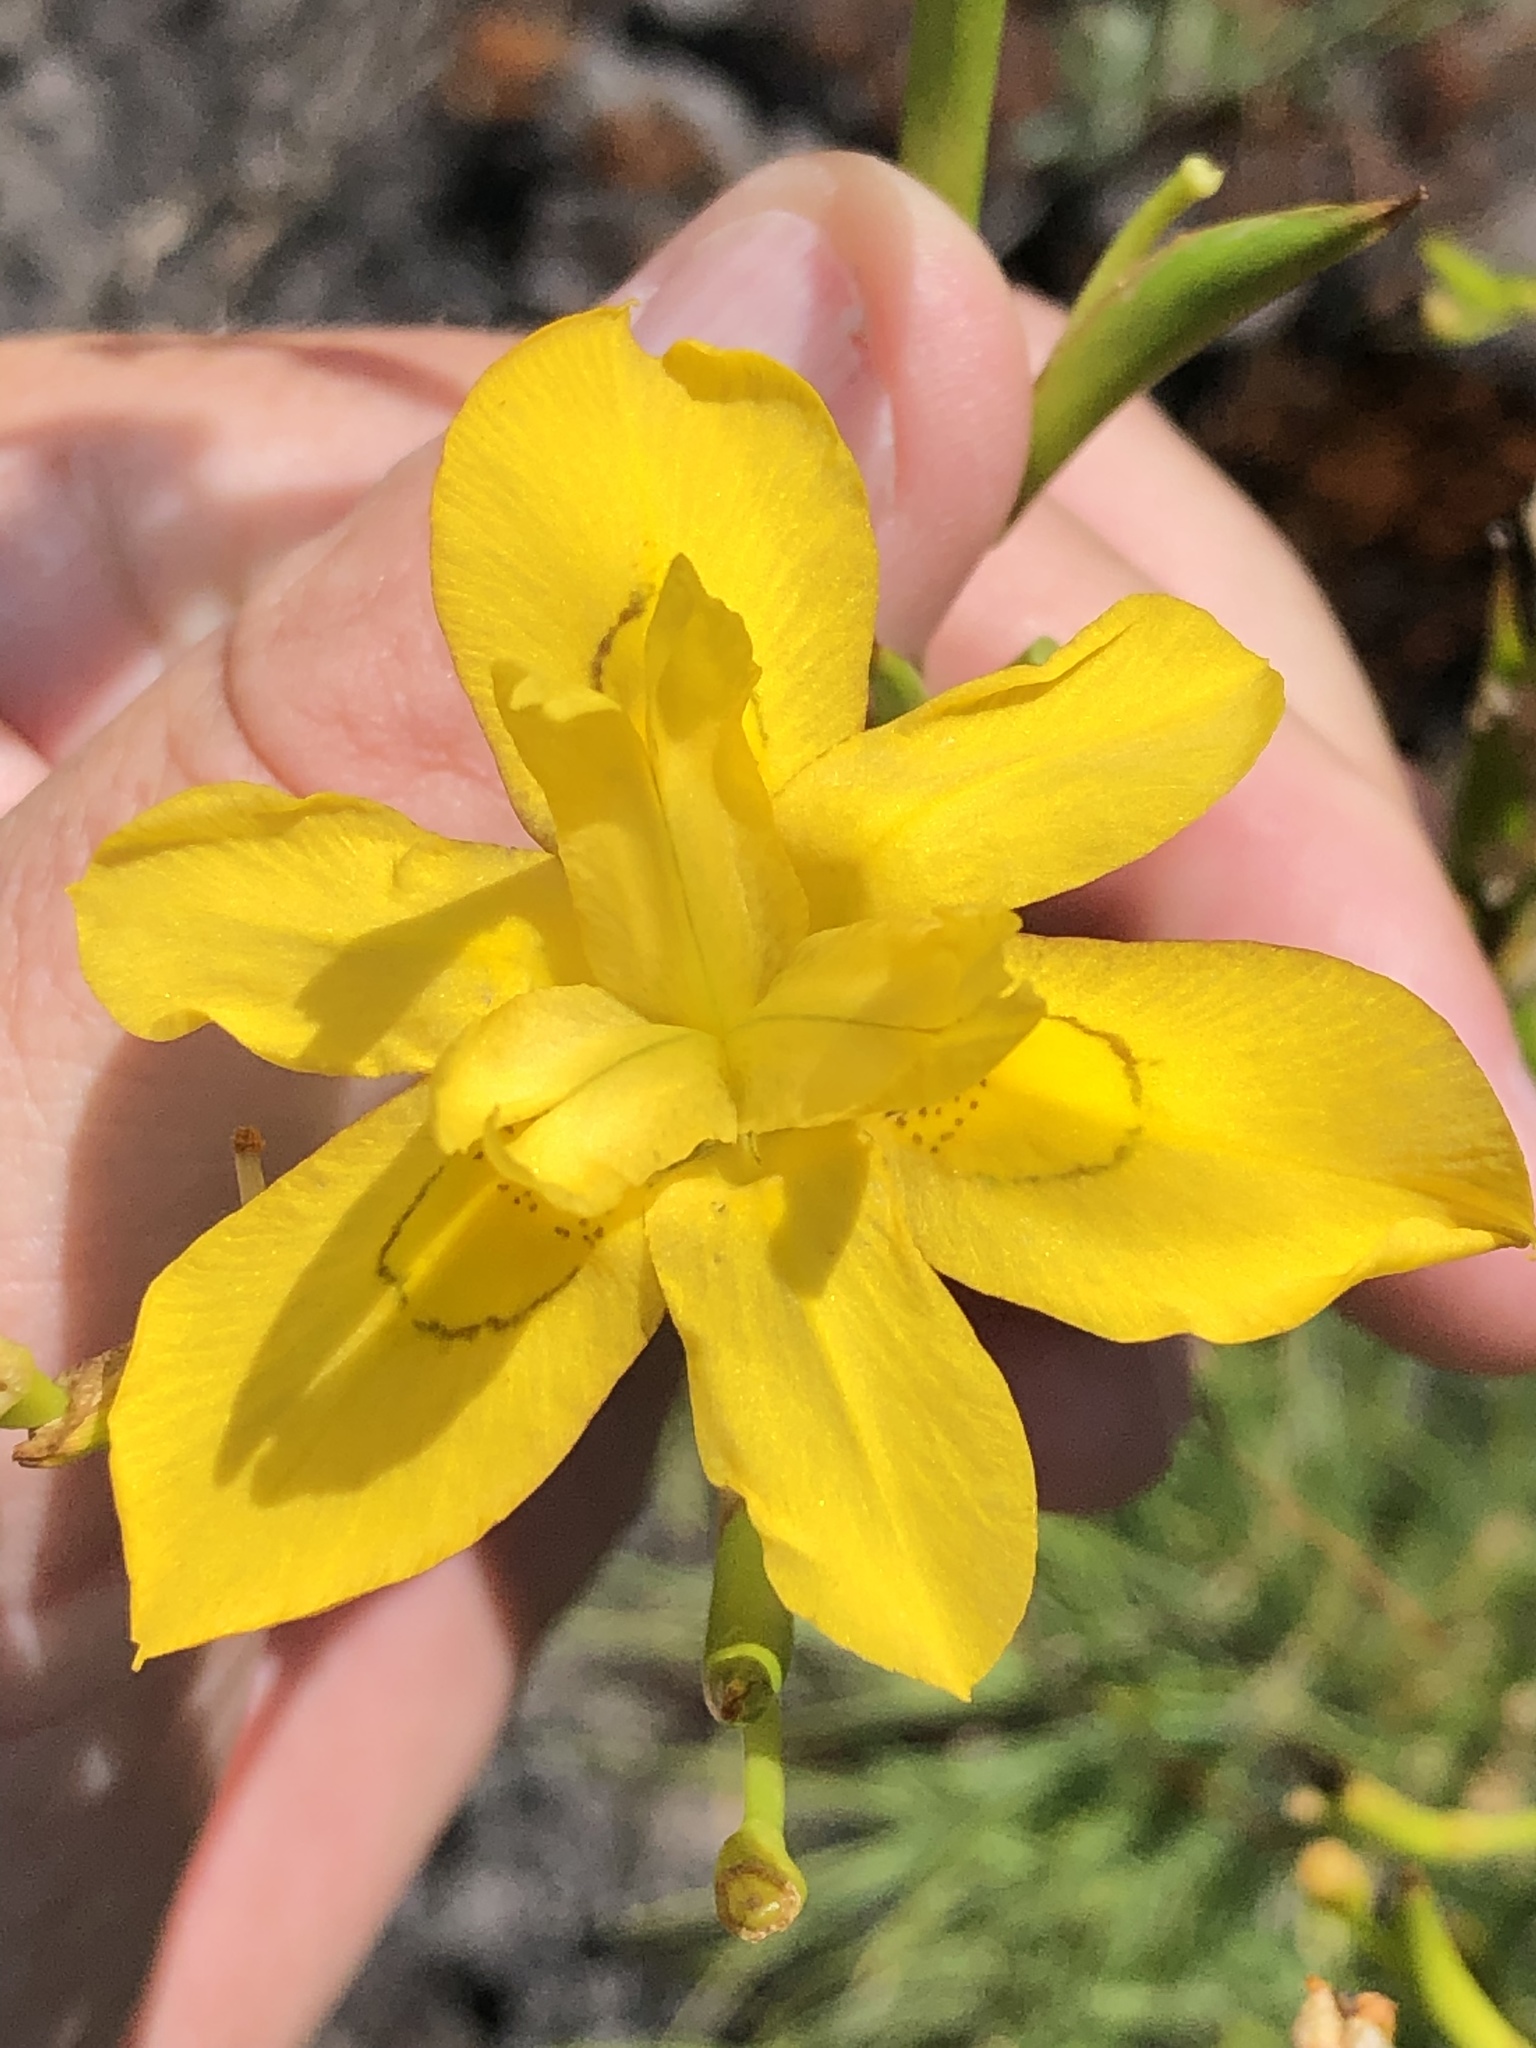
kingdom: Plantae
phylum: Tracheophyta
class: Liliopsida
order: Asparagales
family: Iridaceae
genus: Moraea
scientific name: Moraea ramosissima
